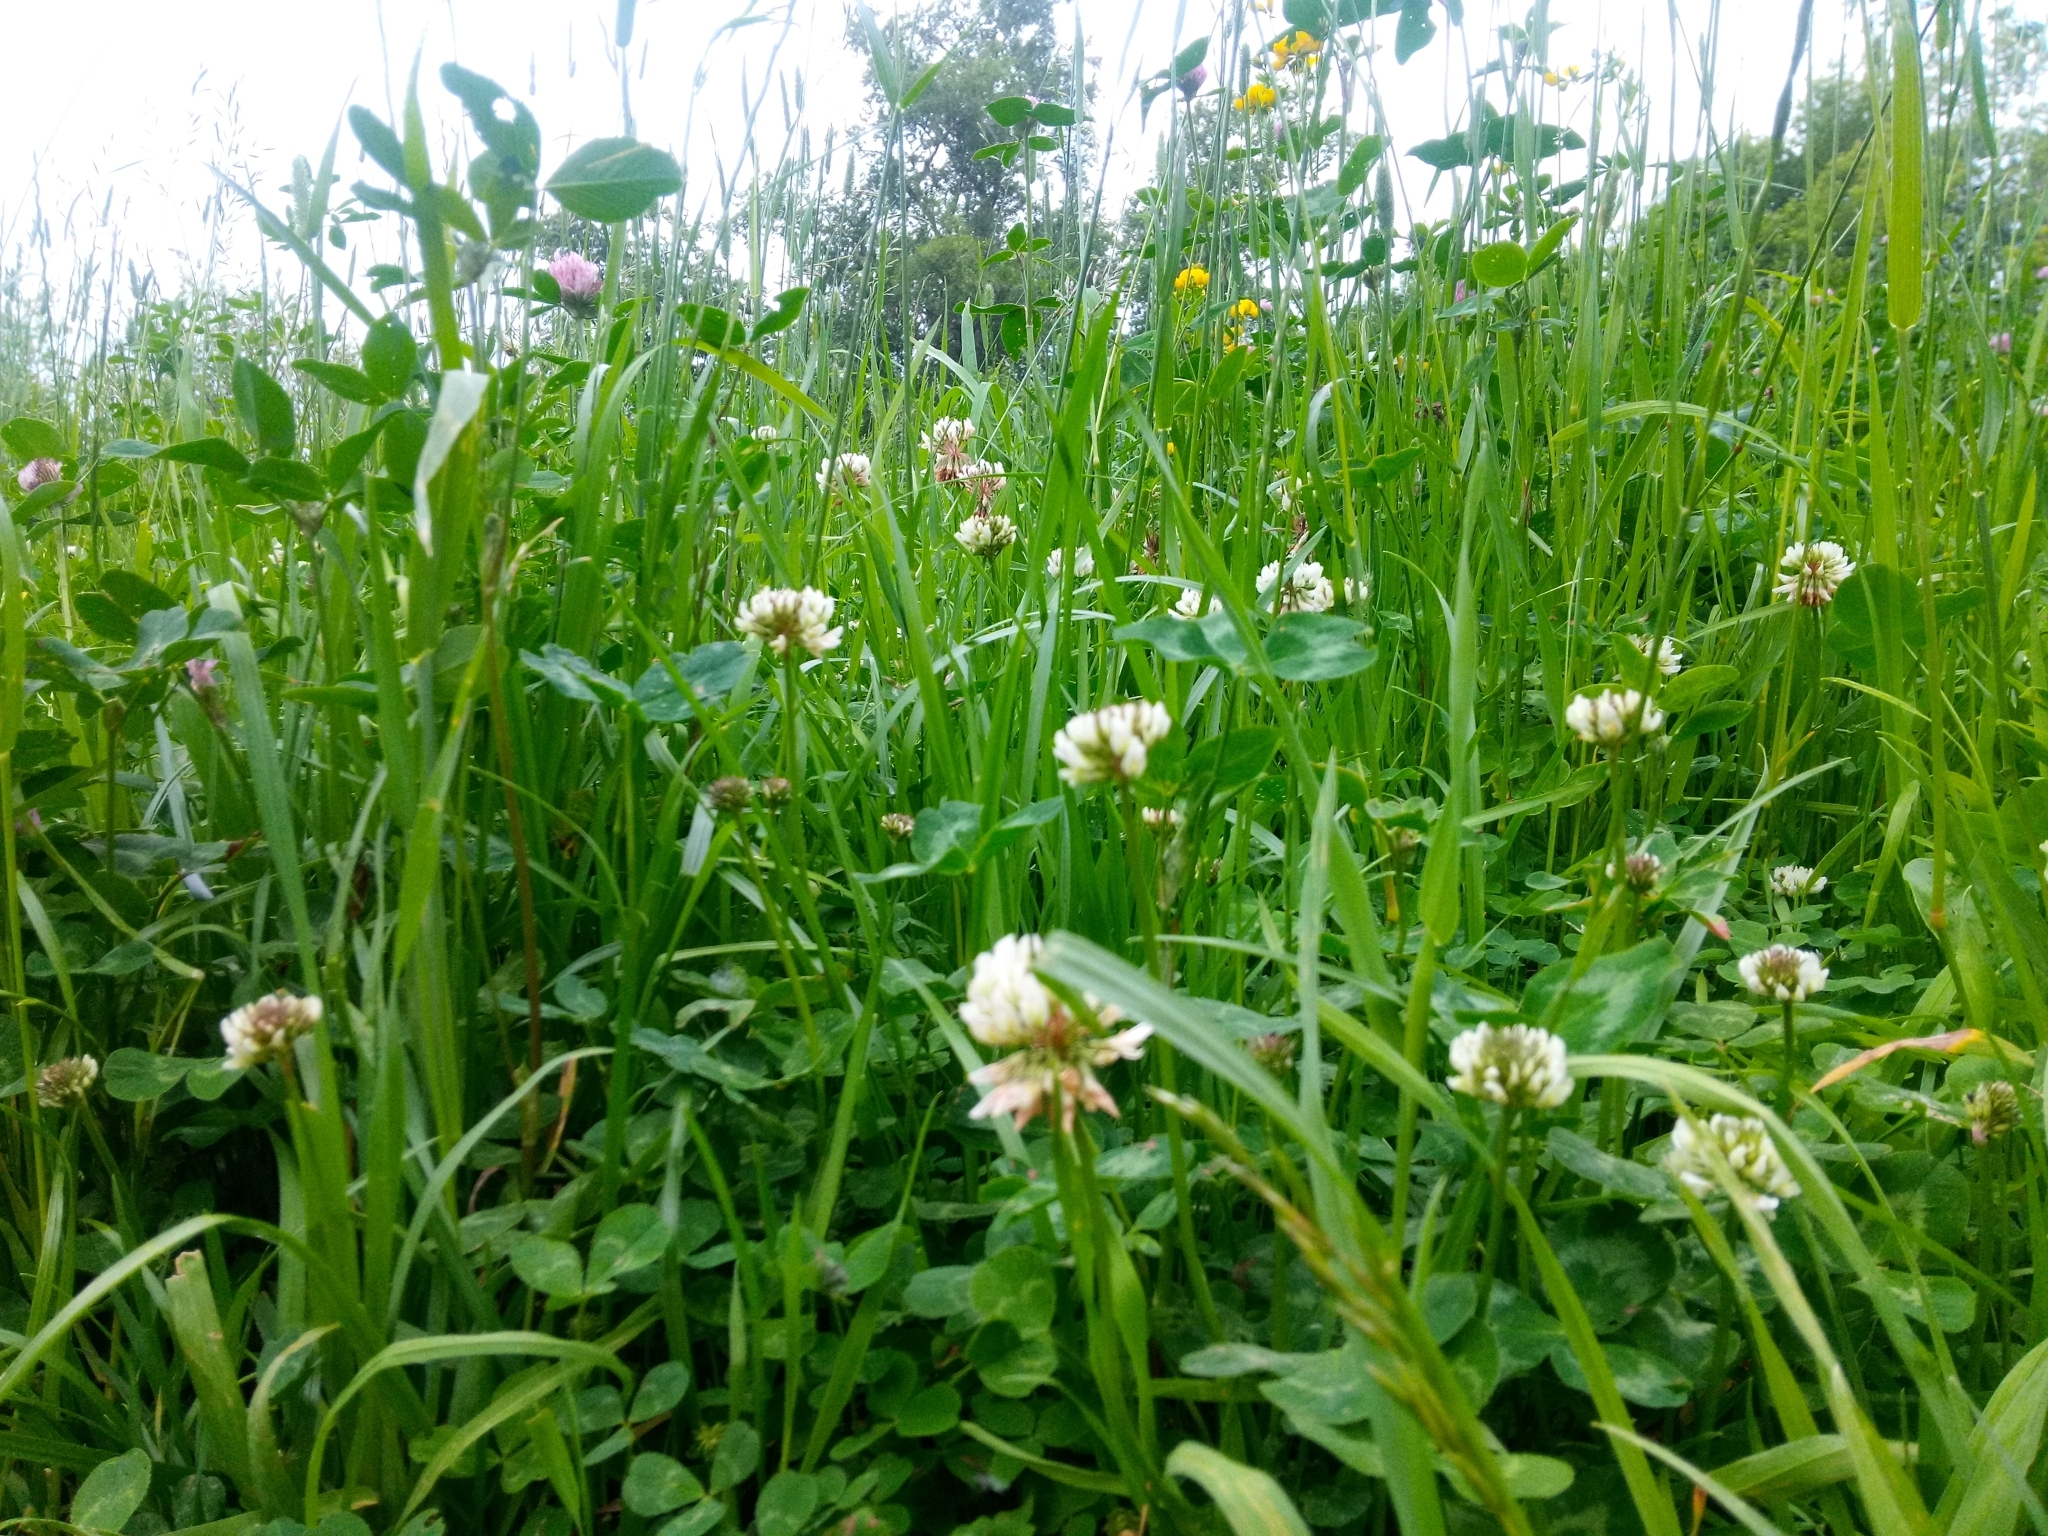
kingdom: Plantae
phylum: Tracheophyta
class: Magnoliopsida
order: Fabales
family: Fabaceae
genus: Trifolium
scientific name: Trifolium repens
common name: White clover
